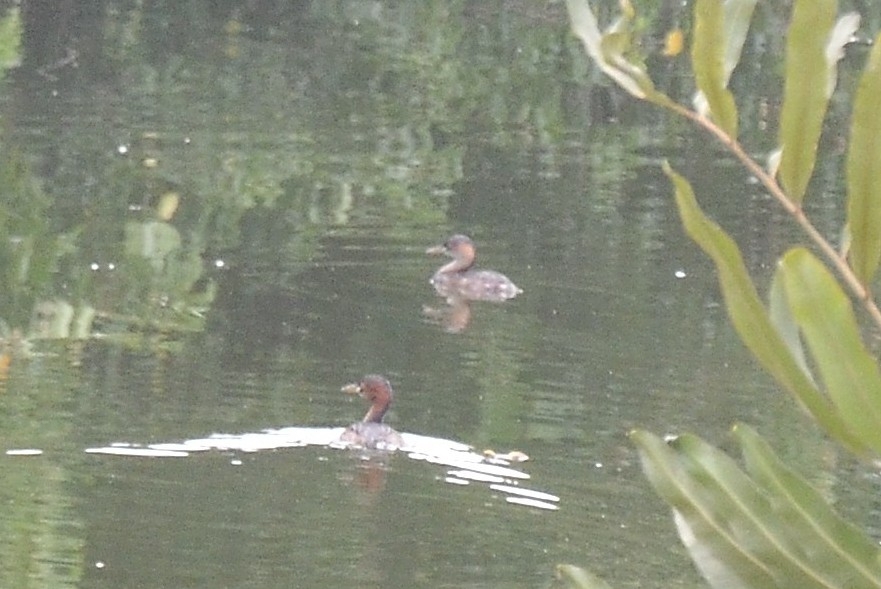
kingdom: Animalia
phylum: Chordata
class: Aves
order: Podicipediformes
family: Podicipedidae
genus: Tachybaptus
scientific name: Tachybaptus ruficollis
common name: Little grebe
